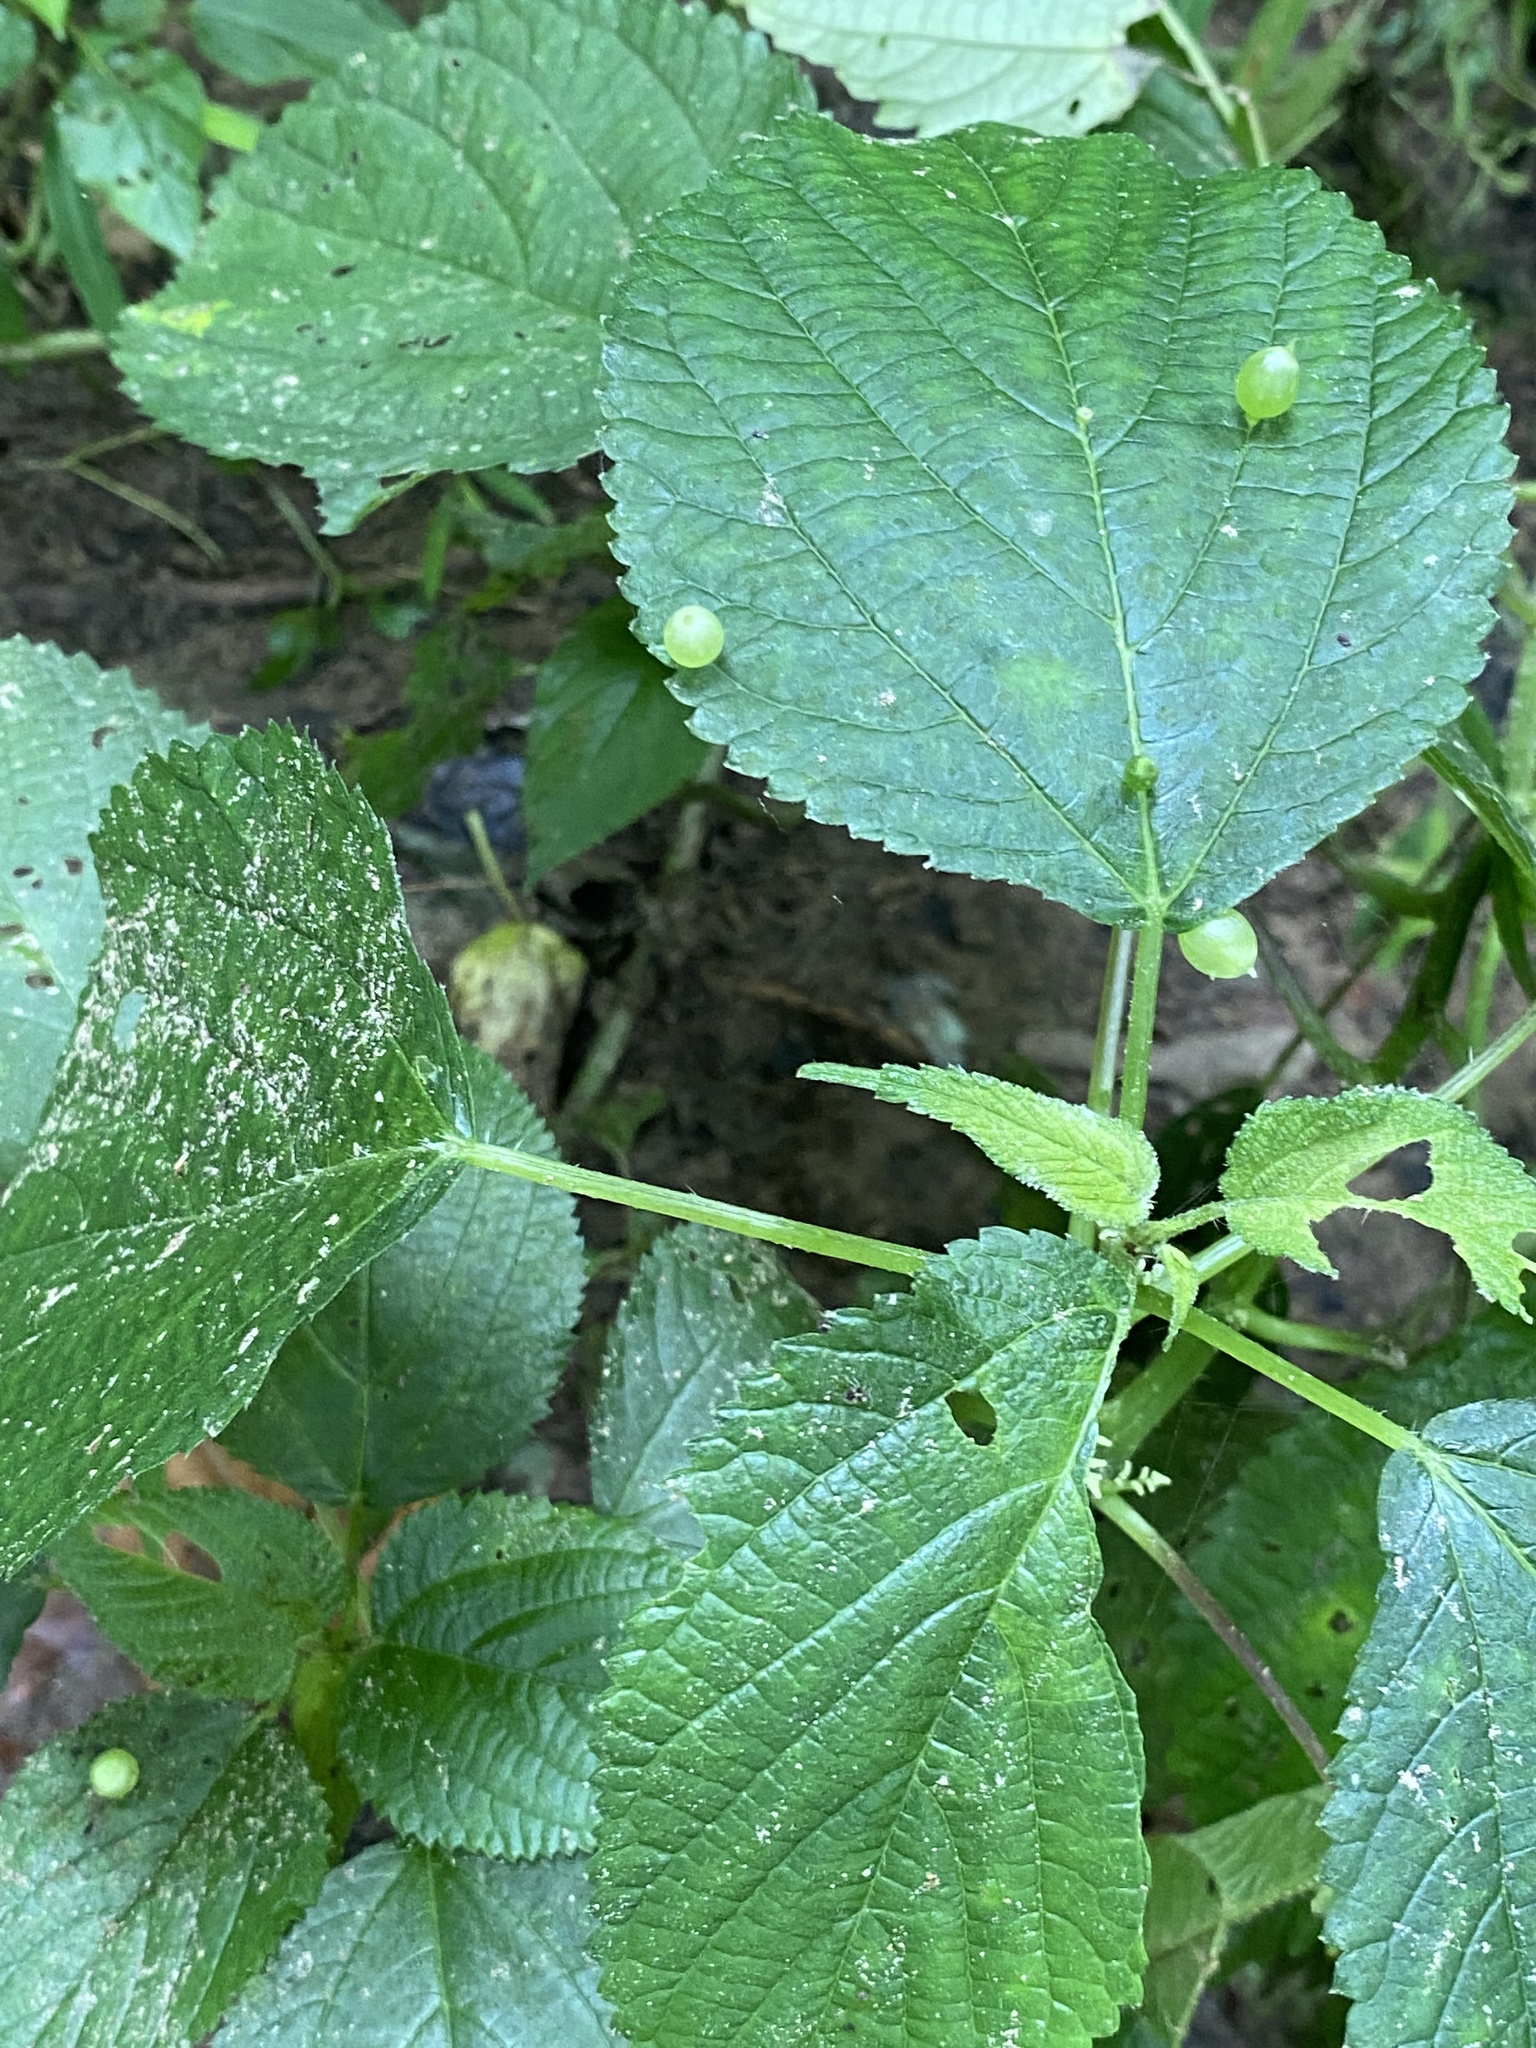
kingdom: Animalia
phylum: Arthropoda
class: Insecta
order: Diptera
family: Cecidomyiidae
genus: Dasineura
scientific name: Dasineura investita
